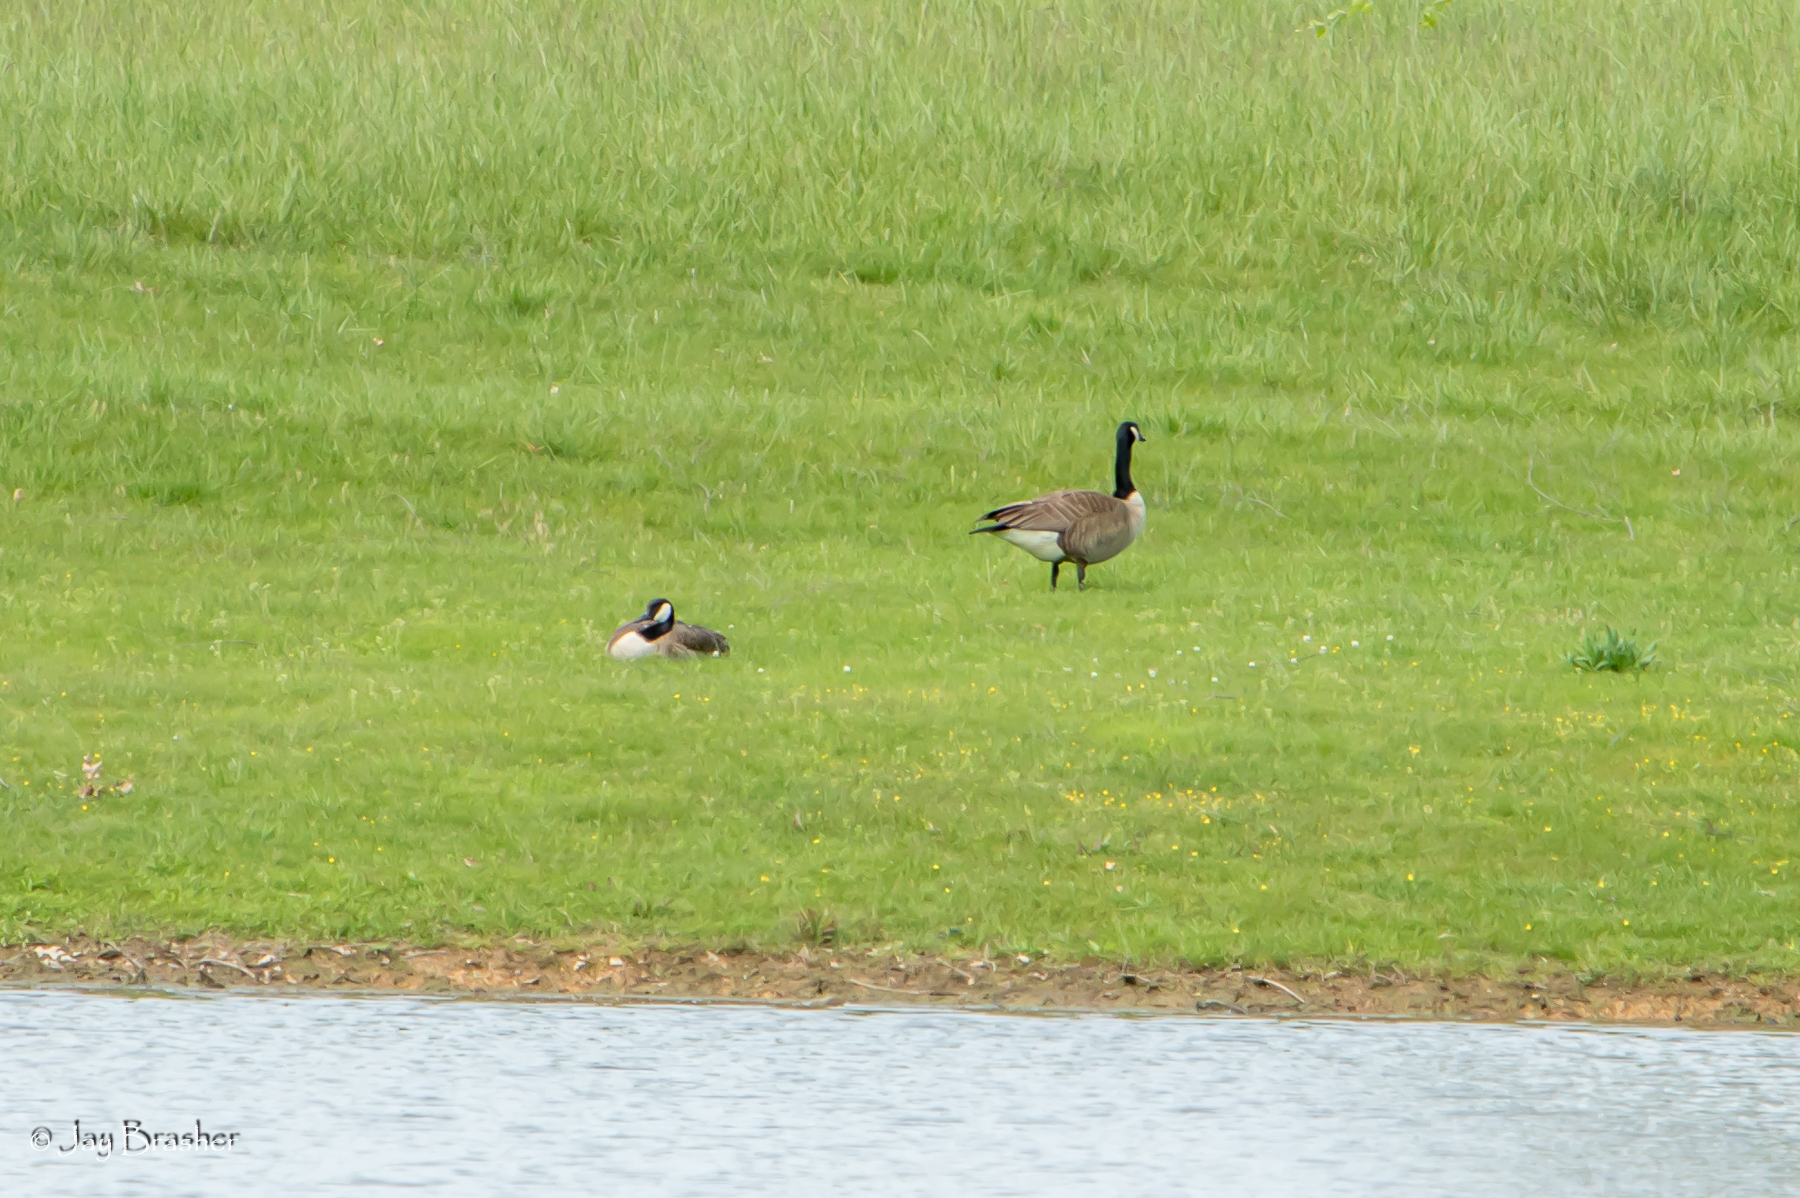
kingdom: Animalia
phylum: Chordata
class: Aves
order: Anseriformes
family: Anatidae
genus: Branta
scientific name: Branta canadensis
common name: Canada goose
